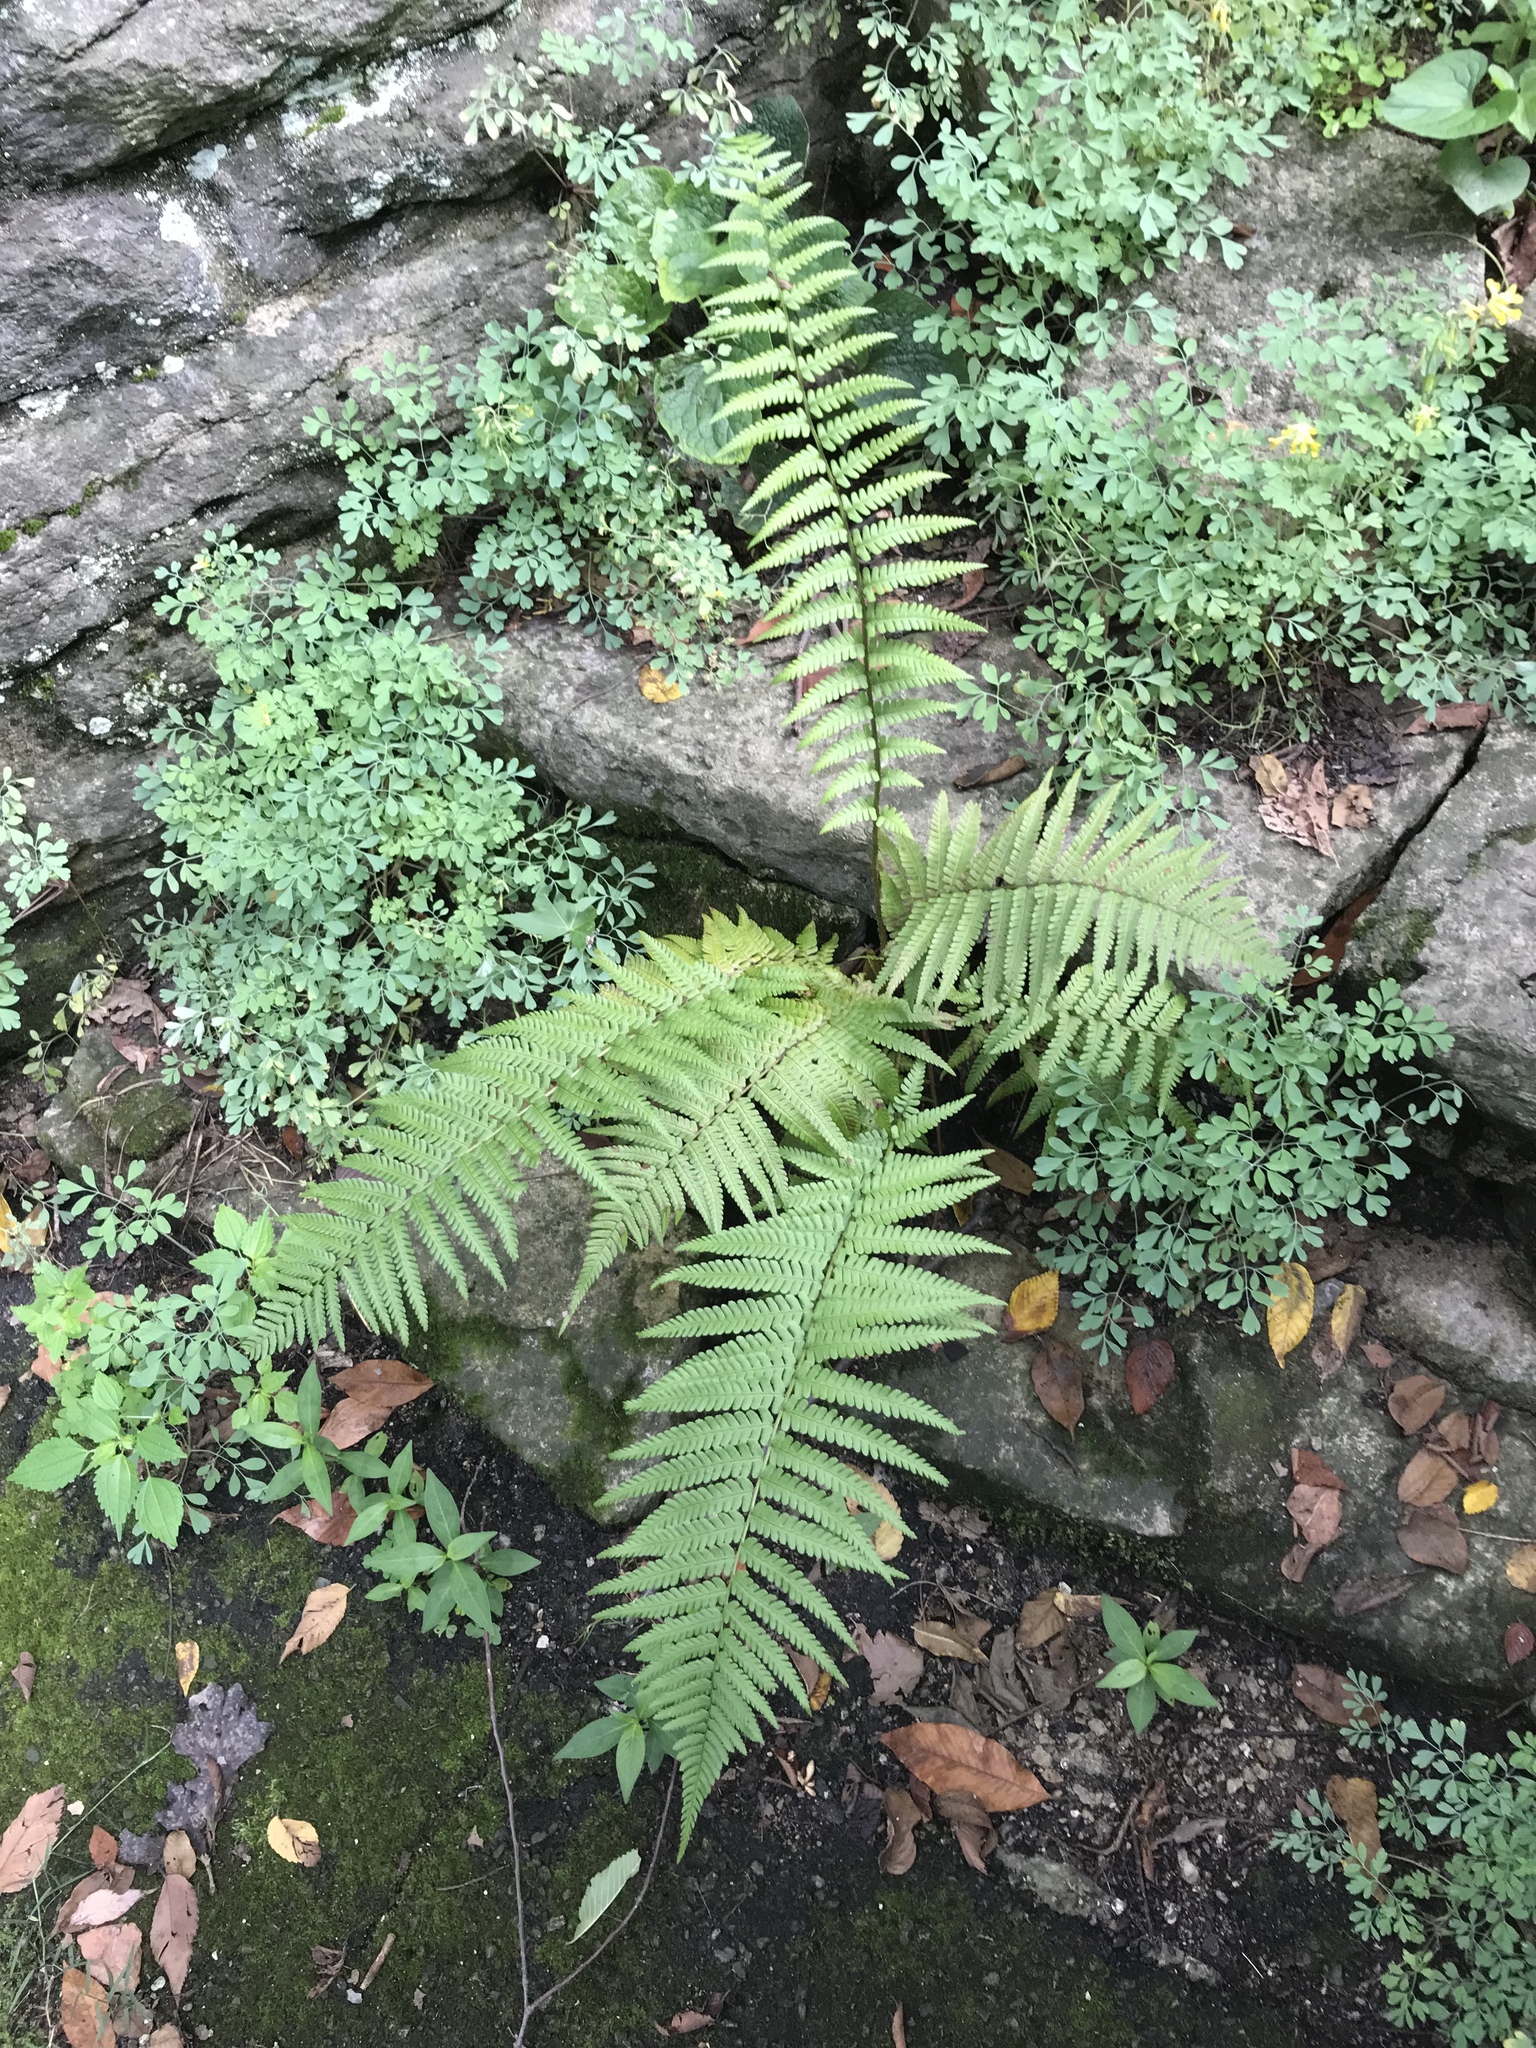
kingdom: Plantae
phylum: Tracheophyta
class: Polypodiopsida
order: Polypodiales
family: Dryopteridaceae
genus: Dryopteris
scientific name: Dryopteris filix-mas
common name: Male fern
